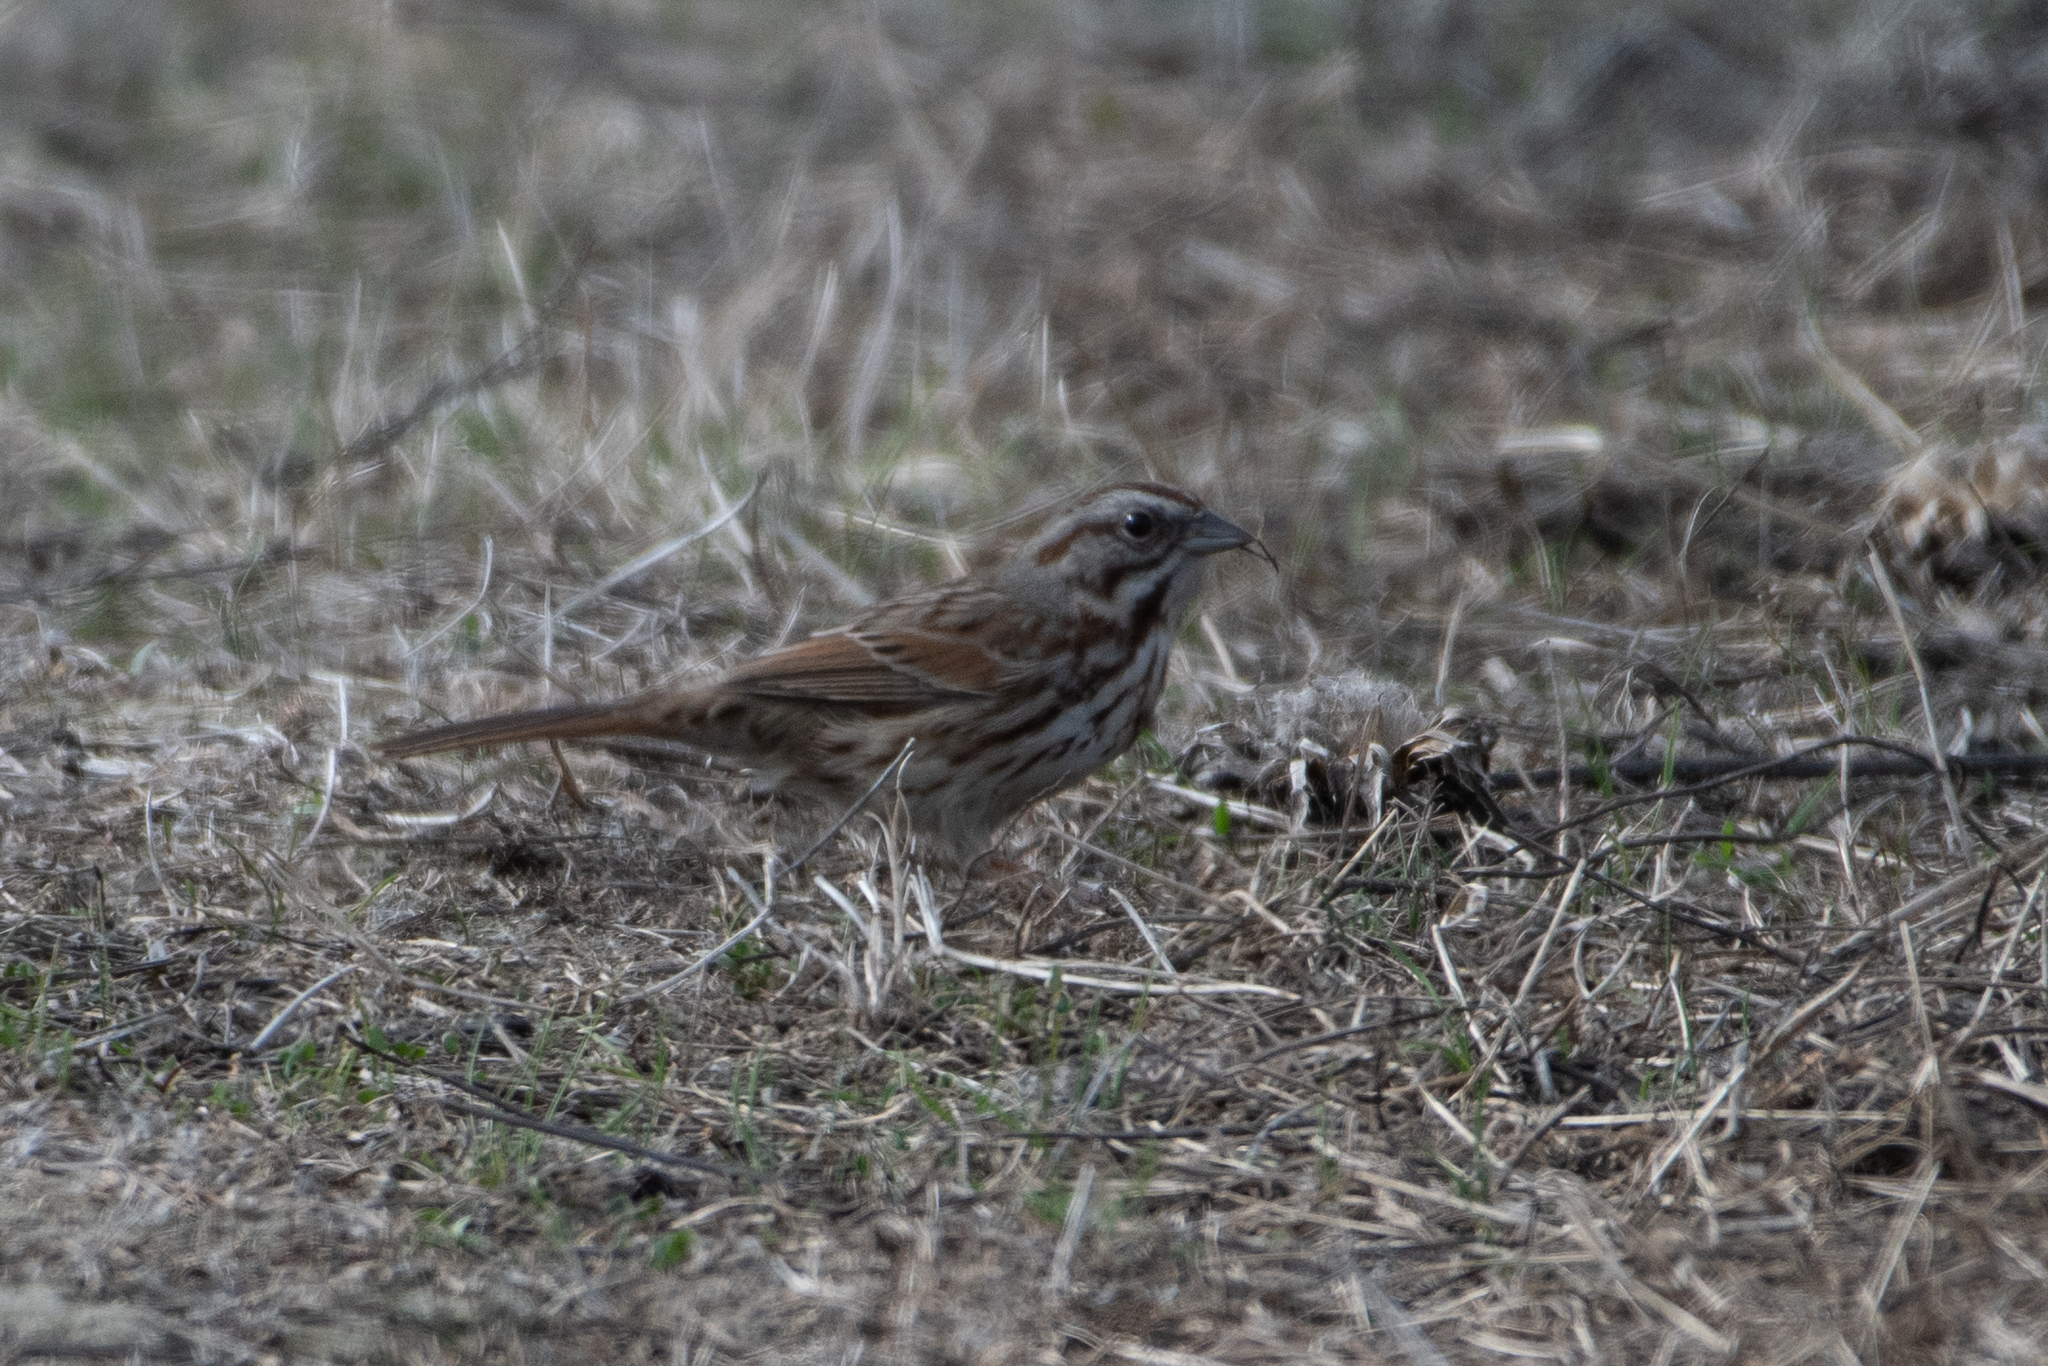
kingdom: Animalia
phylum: Chordata
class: Aves
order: Passeriformes
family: Passerellidae
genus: Melospiza
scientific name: Melospiza melodia
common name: Song sparrow
